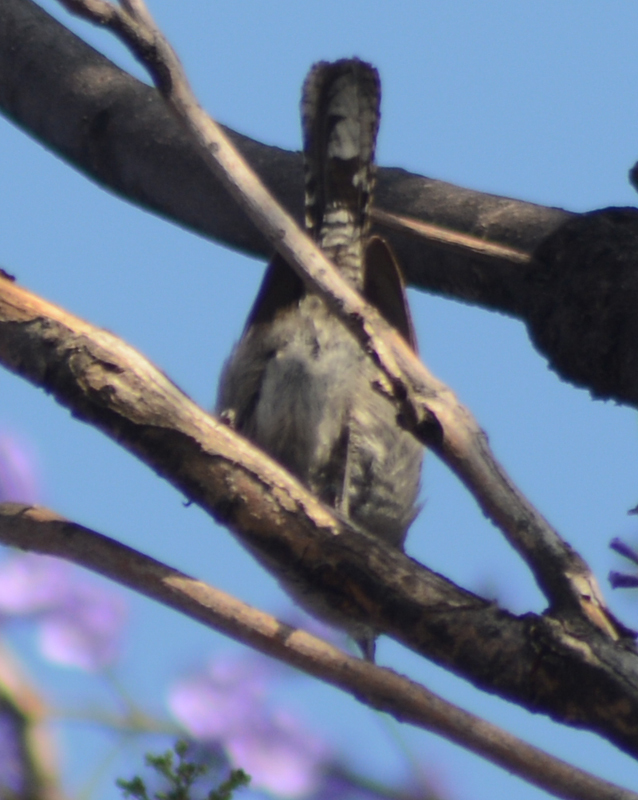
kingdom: Animalia
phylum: Chordata
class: Aves
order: Passeriformes
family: Troglodytidae
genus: Thryomanes
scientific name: Thryomanes bewickii
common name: Bewick's wren
